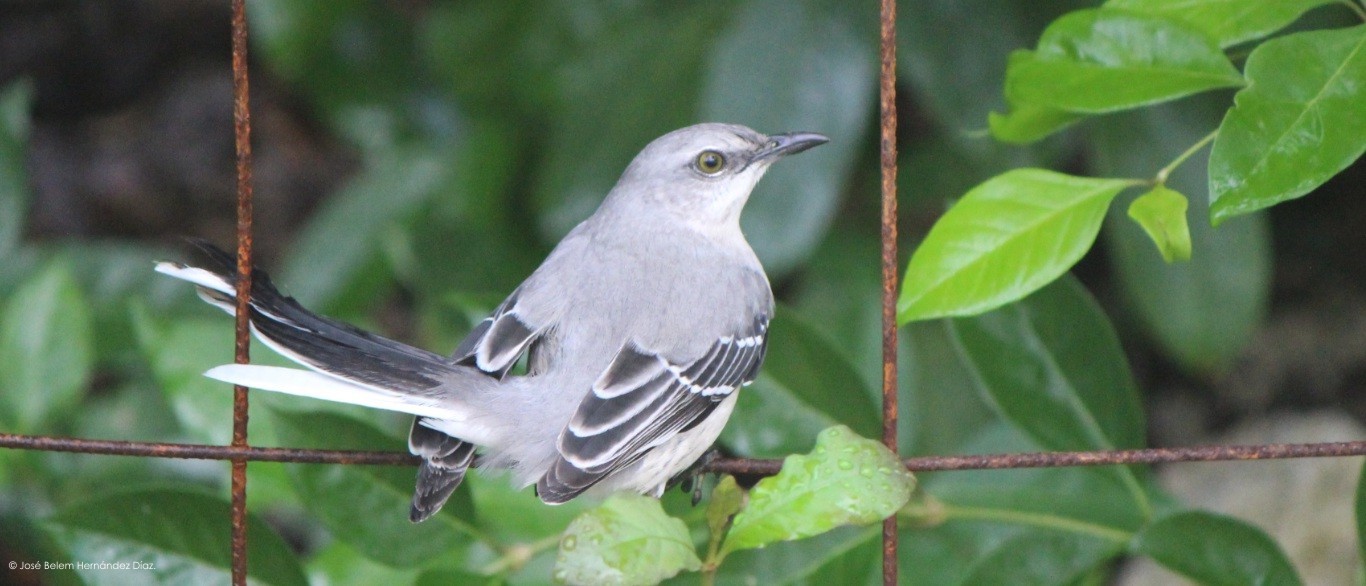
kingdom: Animalia
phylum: Chordata
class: Aves
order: Passeriformes
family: Mimidae
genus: Mimus
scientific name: Mimus gilvus
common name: Tropical mockingbird
